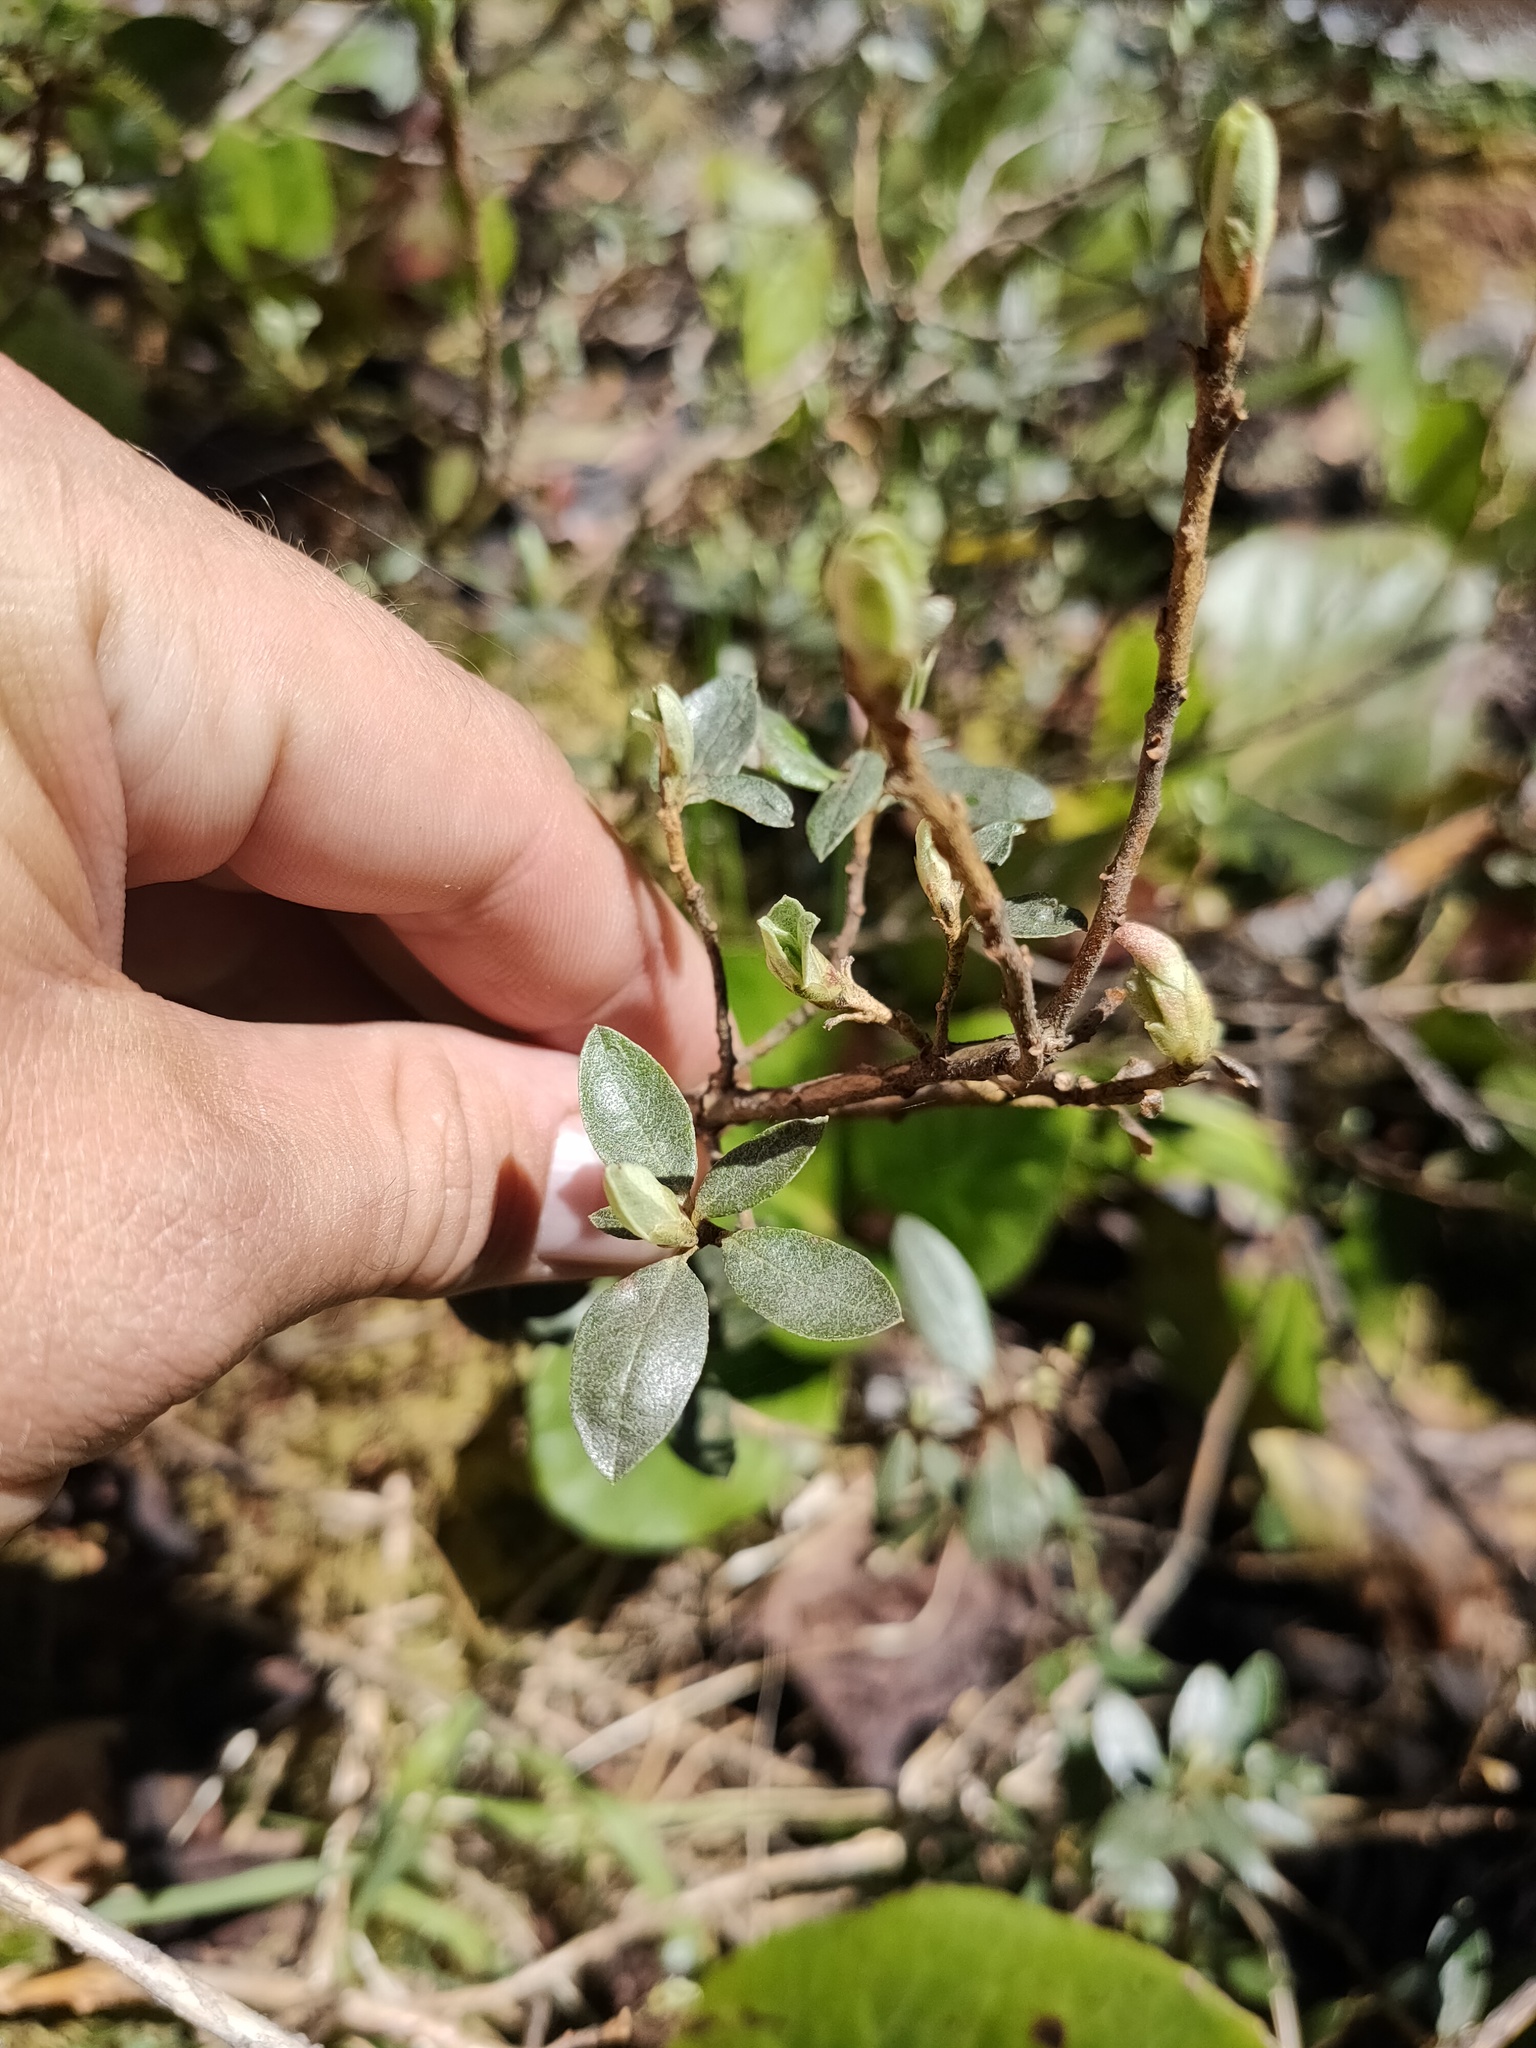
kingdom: Plantae
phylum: Tracheophyta
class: Magnoliopsida
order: Ericales
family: Ericaceae
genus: Rhododendron
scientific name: Rhododendron adamsii
